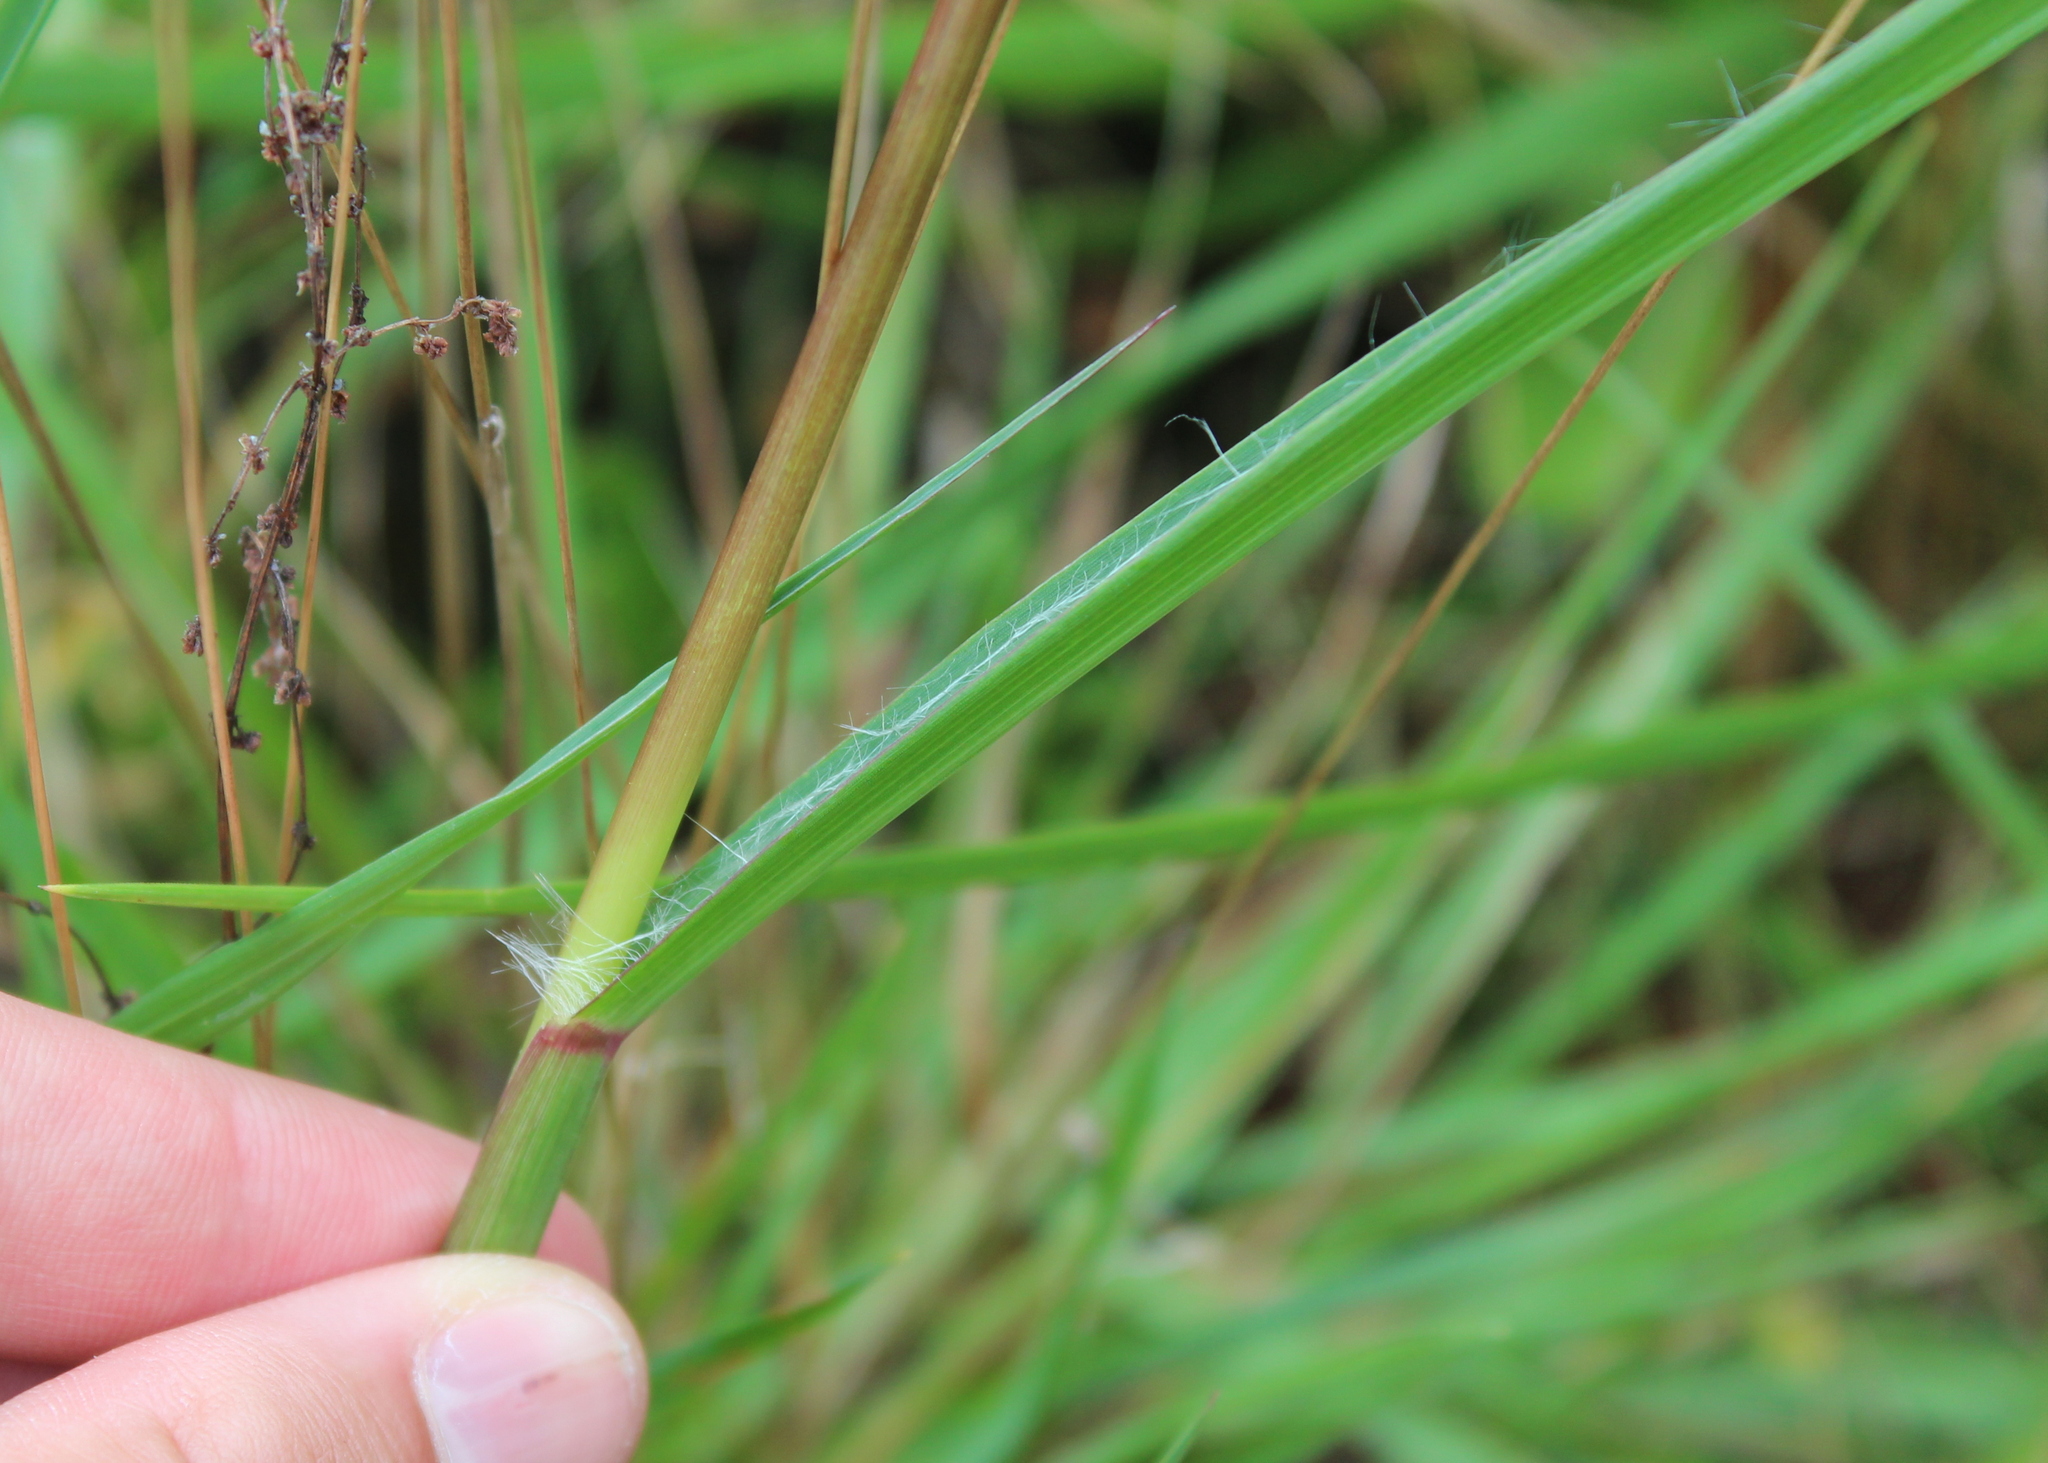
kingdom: Plantae
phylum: Tracheophyta
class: Liliopsida
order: Poales
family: Poaceae
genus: Setaria
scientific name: Setaria pumila
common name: Yellow bristle-grass
